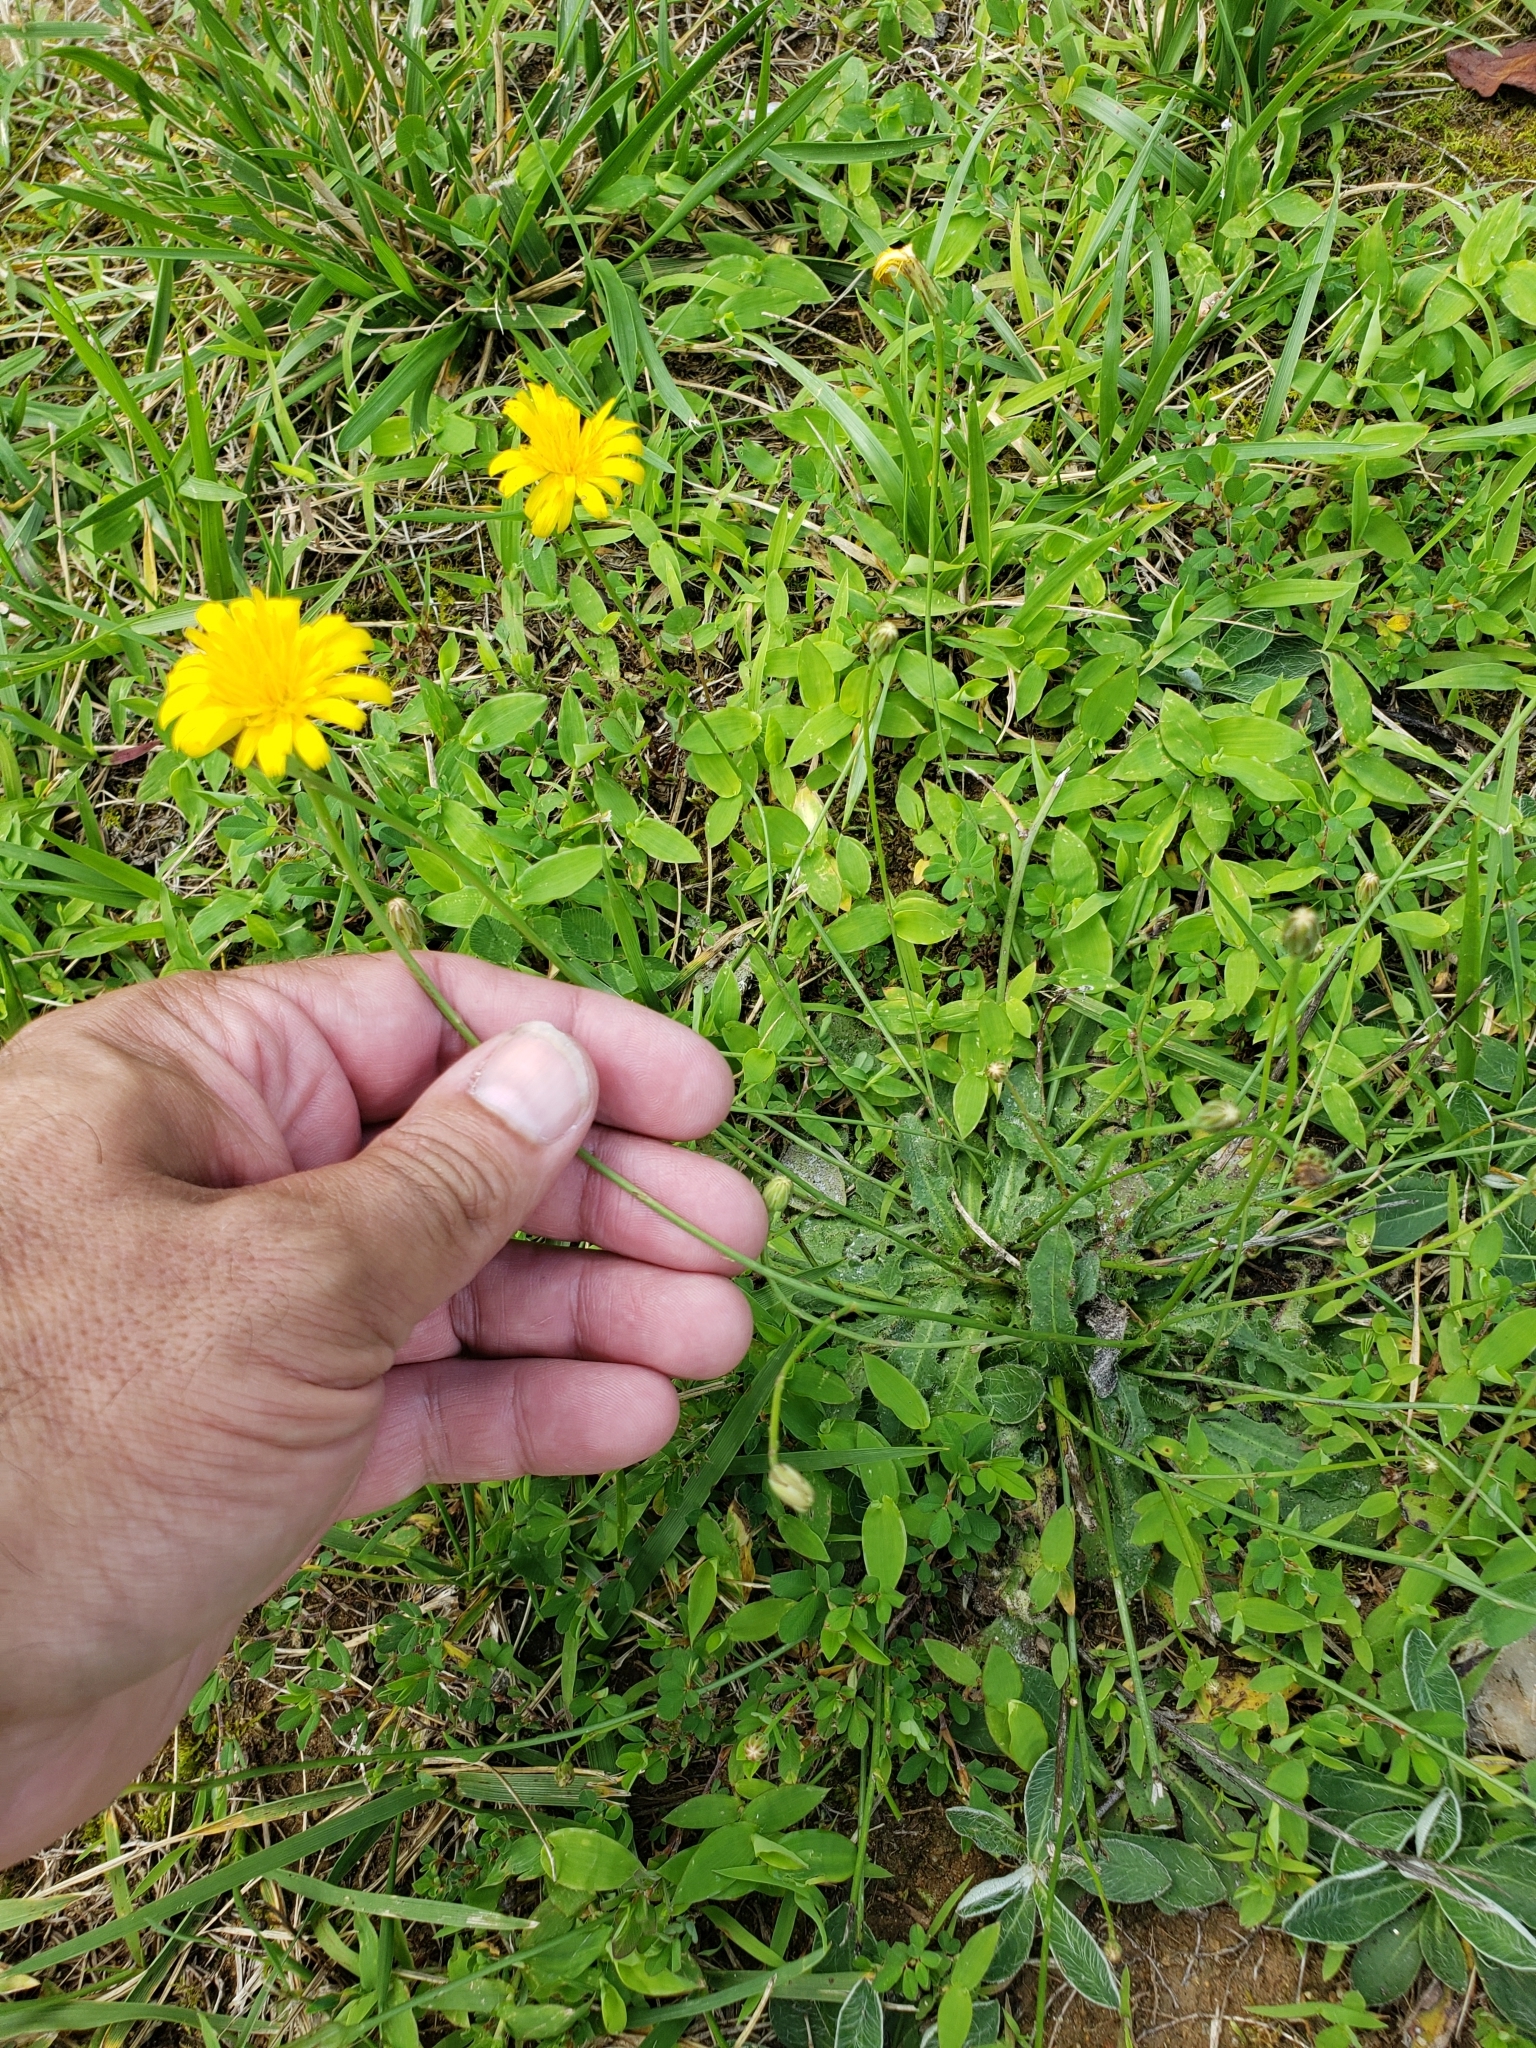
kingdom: Plantae
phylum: Tracheophyta
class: Magnoliopsida
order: Asterales
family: Asteraceae
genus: Krigia
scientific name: Krigia biflora
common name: Orange dwarf-dandelion
